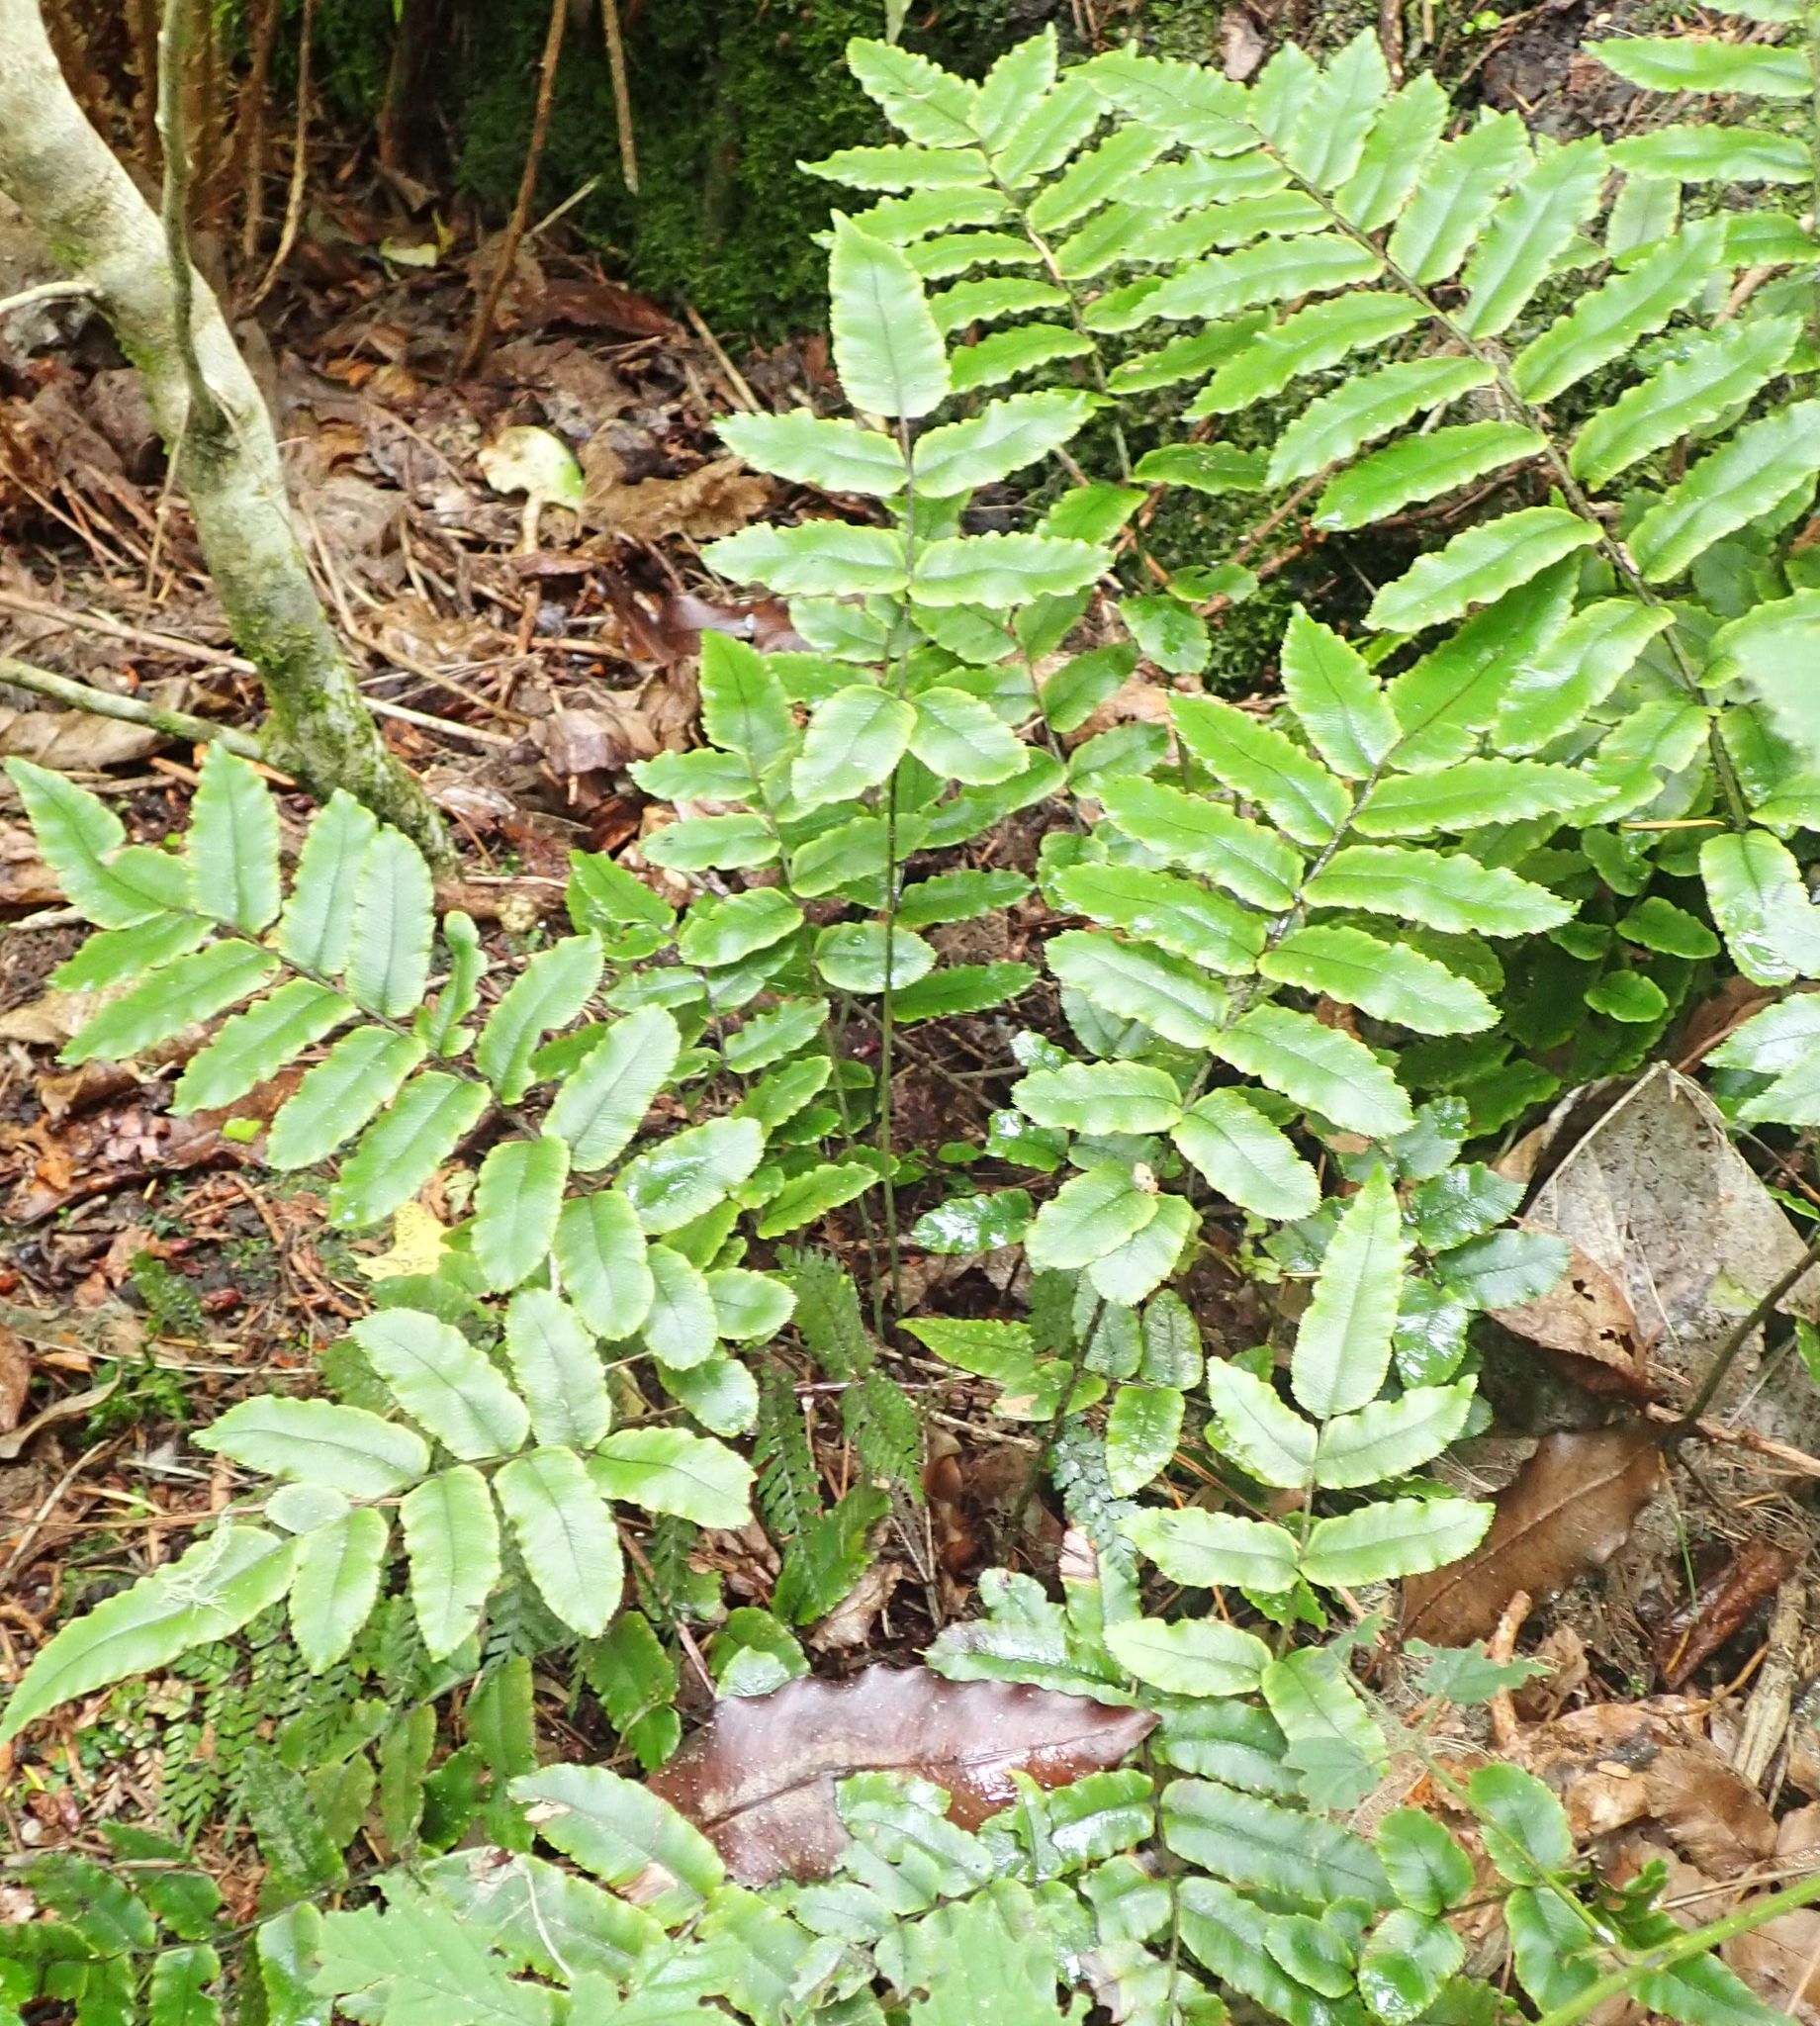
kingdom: Plantae
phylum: Tracheophyta
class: Polypodiopsida
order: Polypodiales
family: Blechnaceae
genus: Parablechnum
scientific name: Parablechnum procerum
